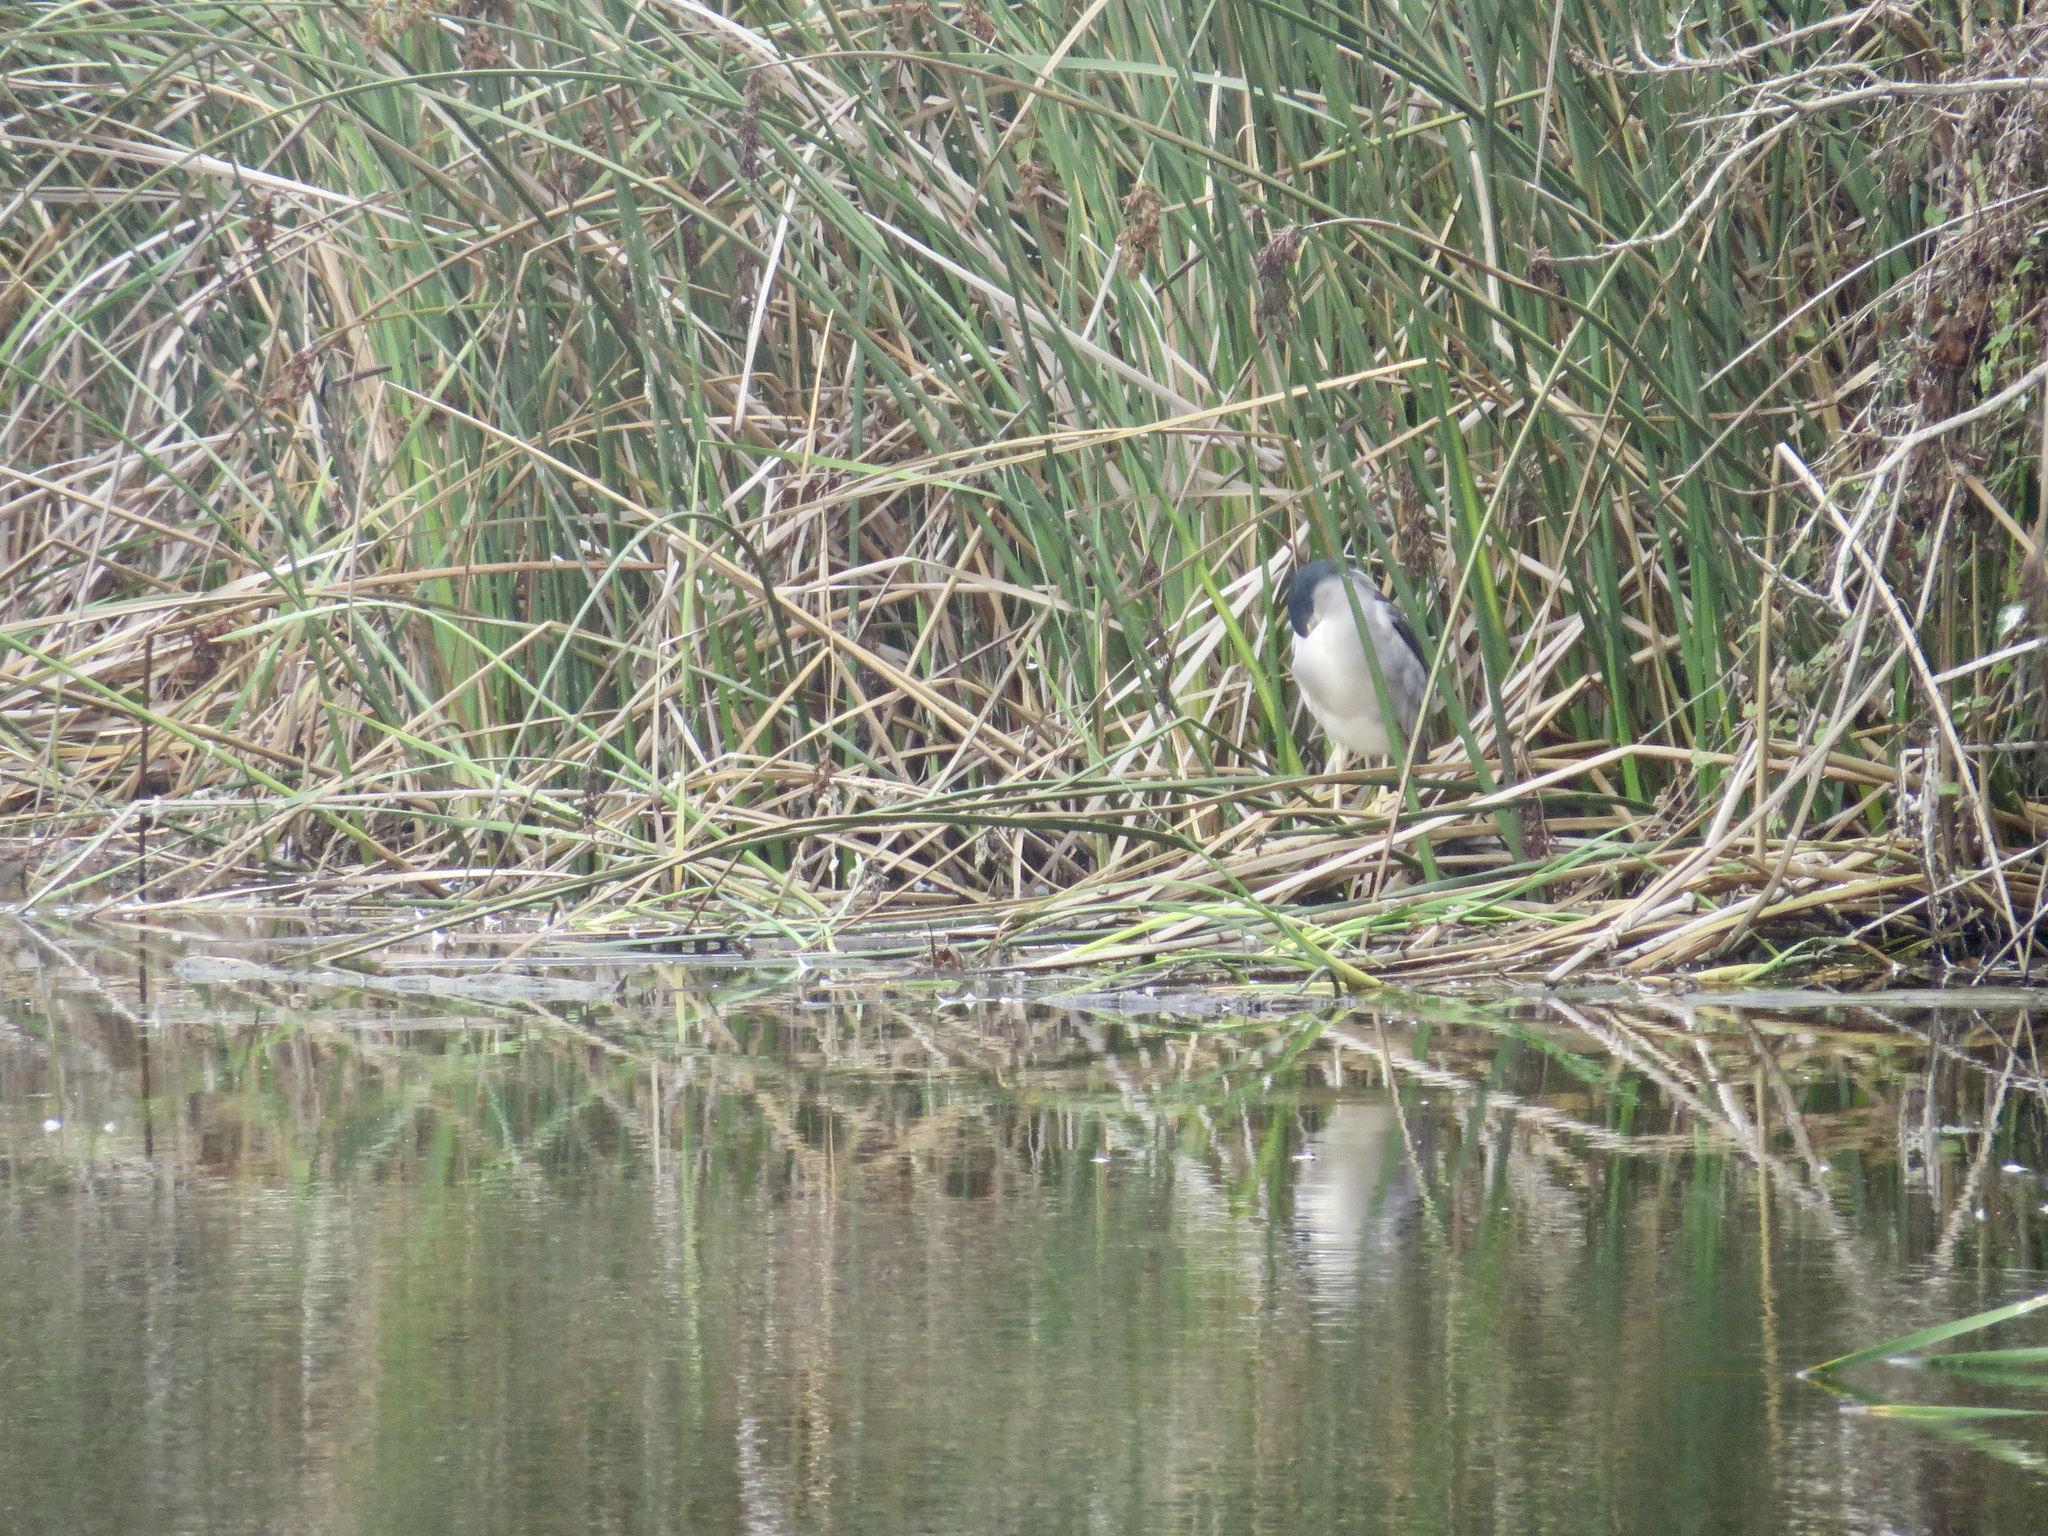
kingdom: Animalia
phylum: Chordata
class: Aves
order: Pelecaniformes
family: Ardeidae
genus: Nycticorax
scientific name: Nycticorax nycticorax
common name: Black-crowned night heron
